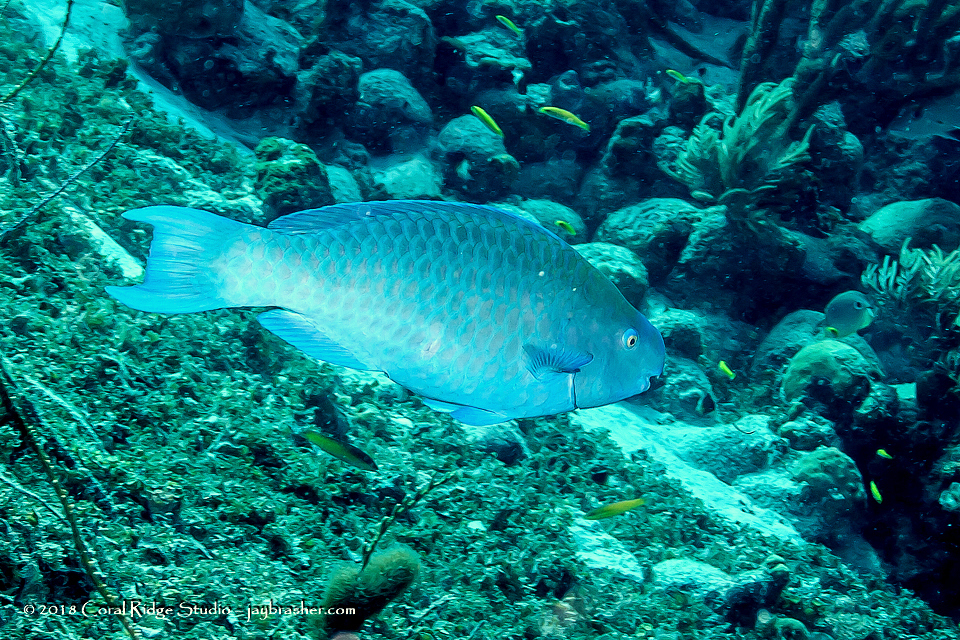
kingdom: Animalia
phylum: Chordata
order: Perciformes
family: Scaridae
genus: Scarus
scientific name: Scarus coeruleus
